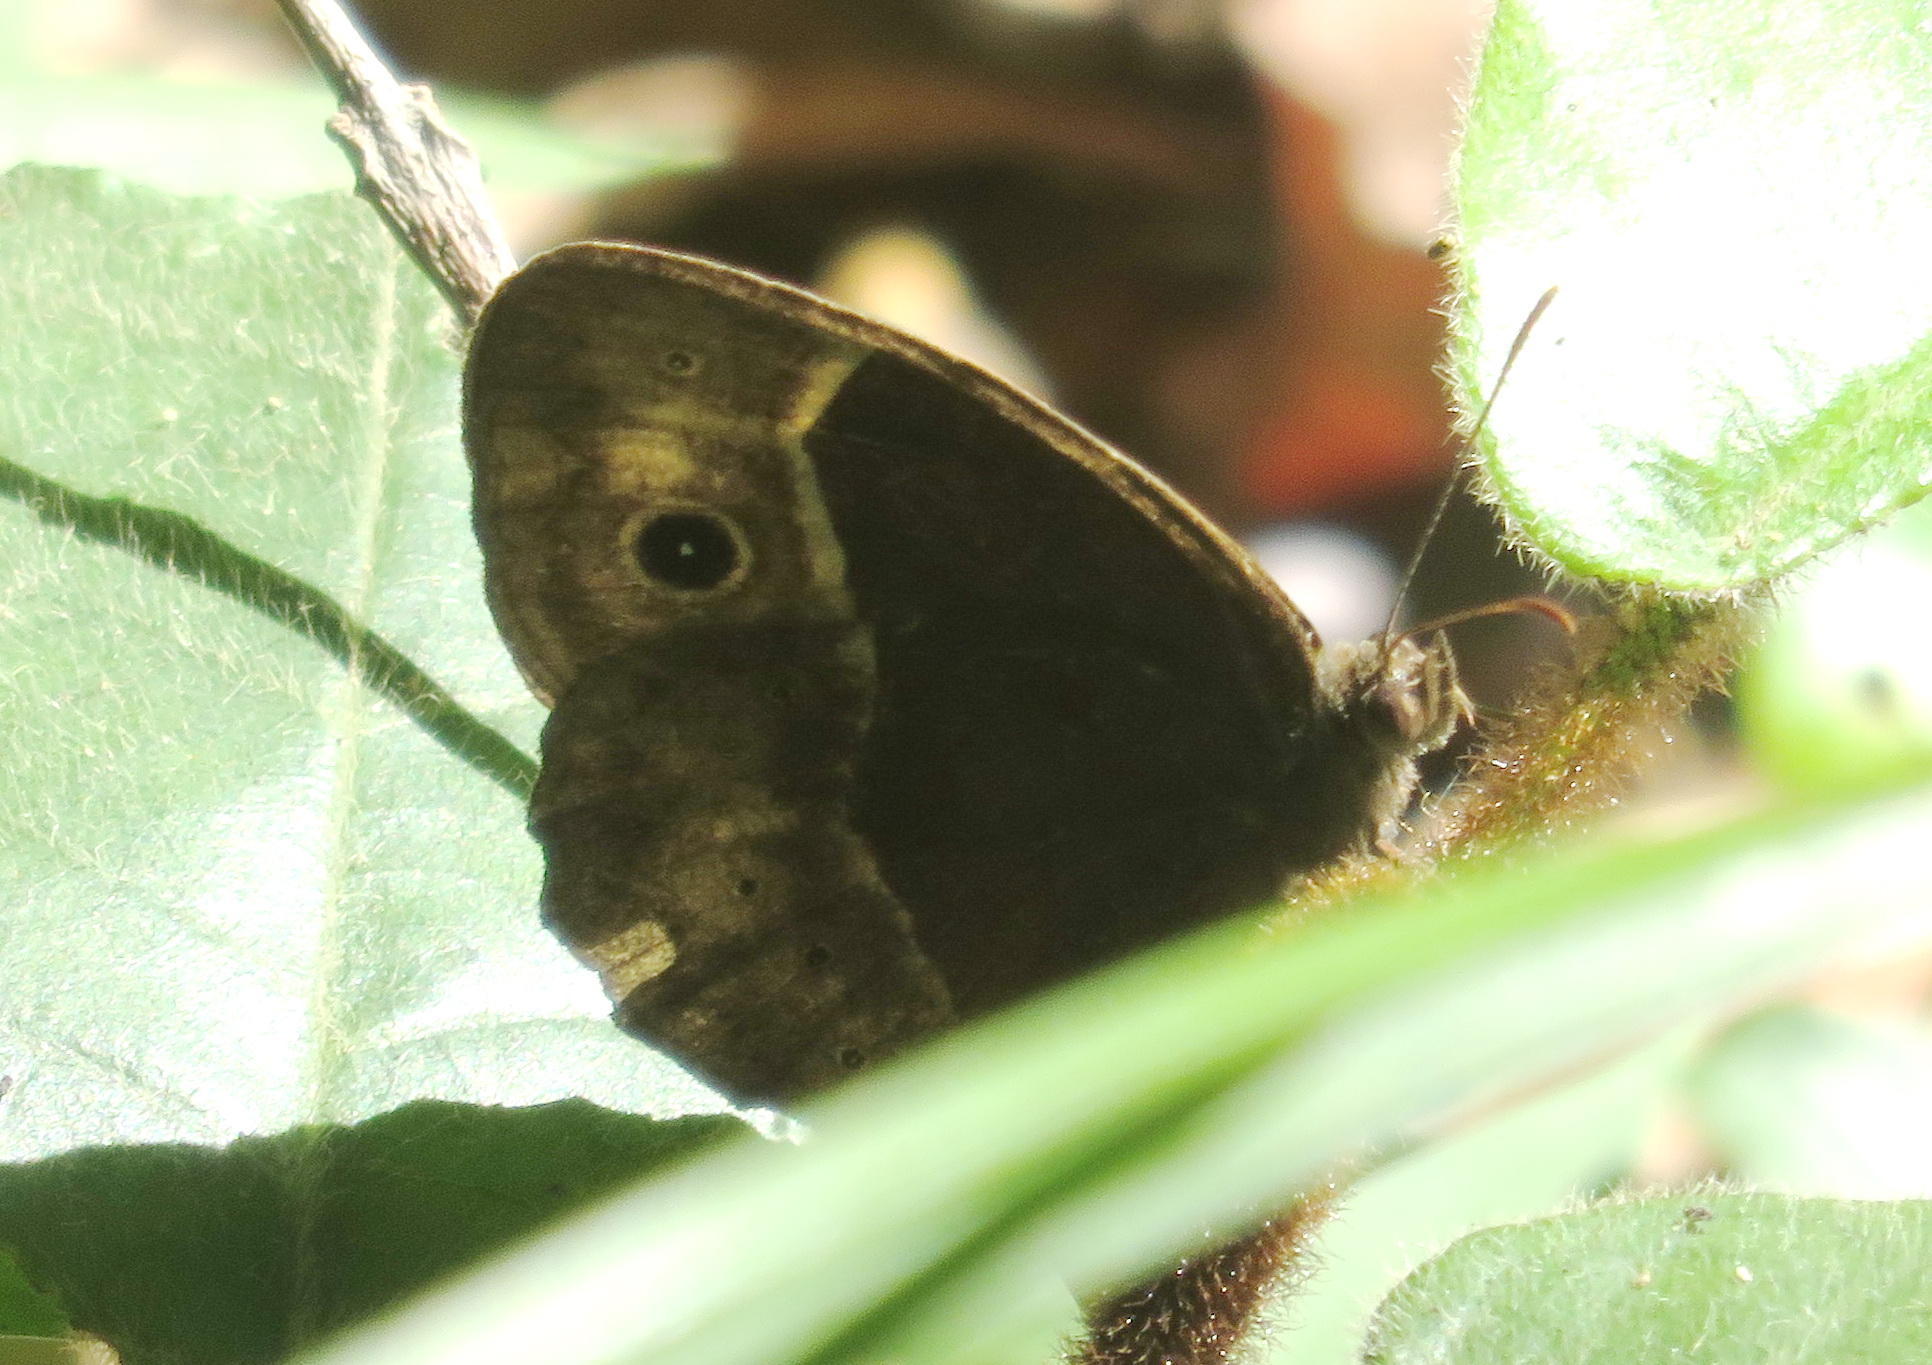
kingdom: Animalia
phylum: Arthropoda
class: Insecta
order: Lepidoptera
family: Nymphalidae
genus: Mycalesis
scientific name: Mycalesis rhacotis
